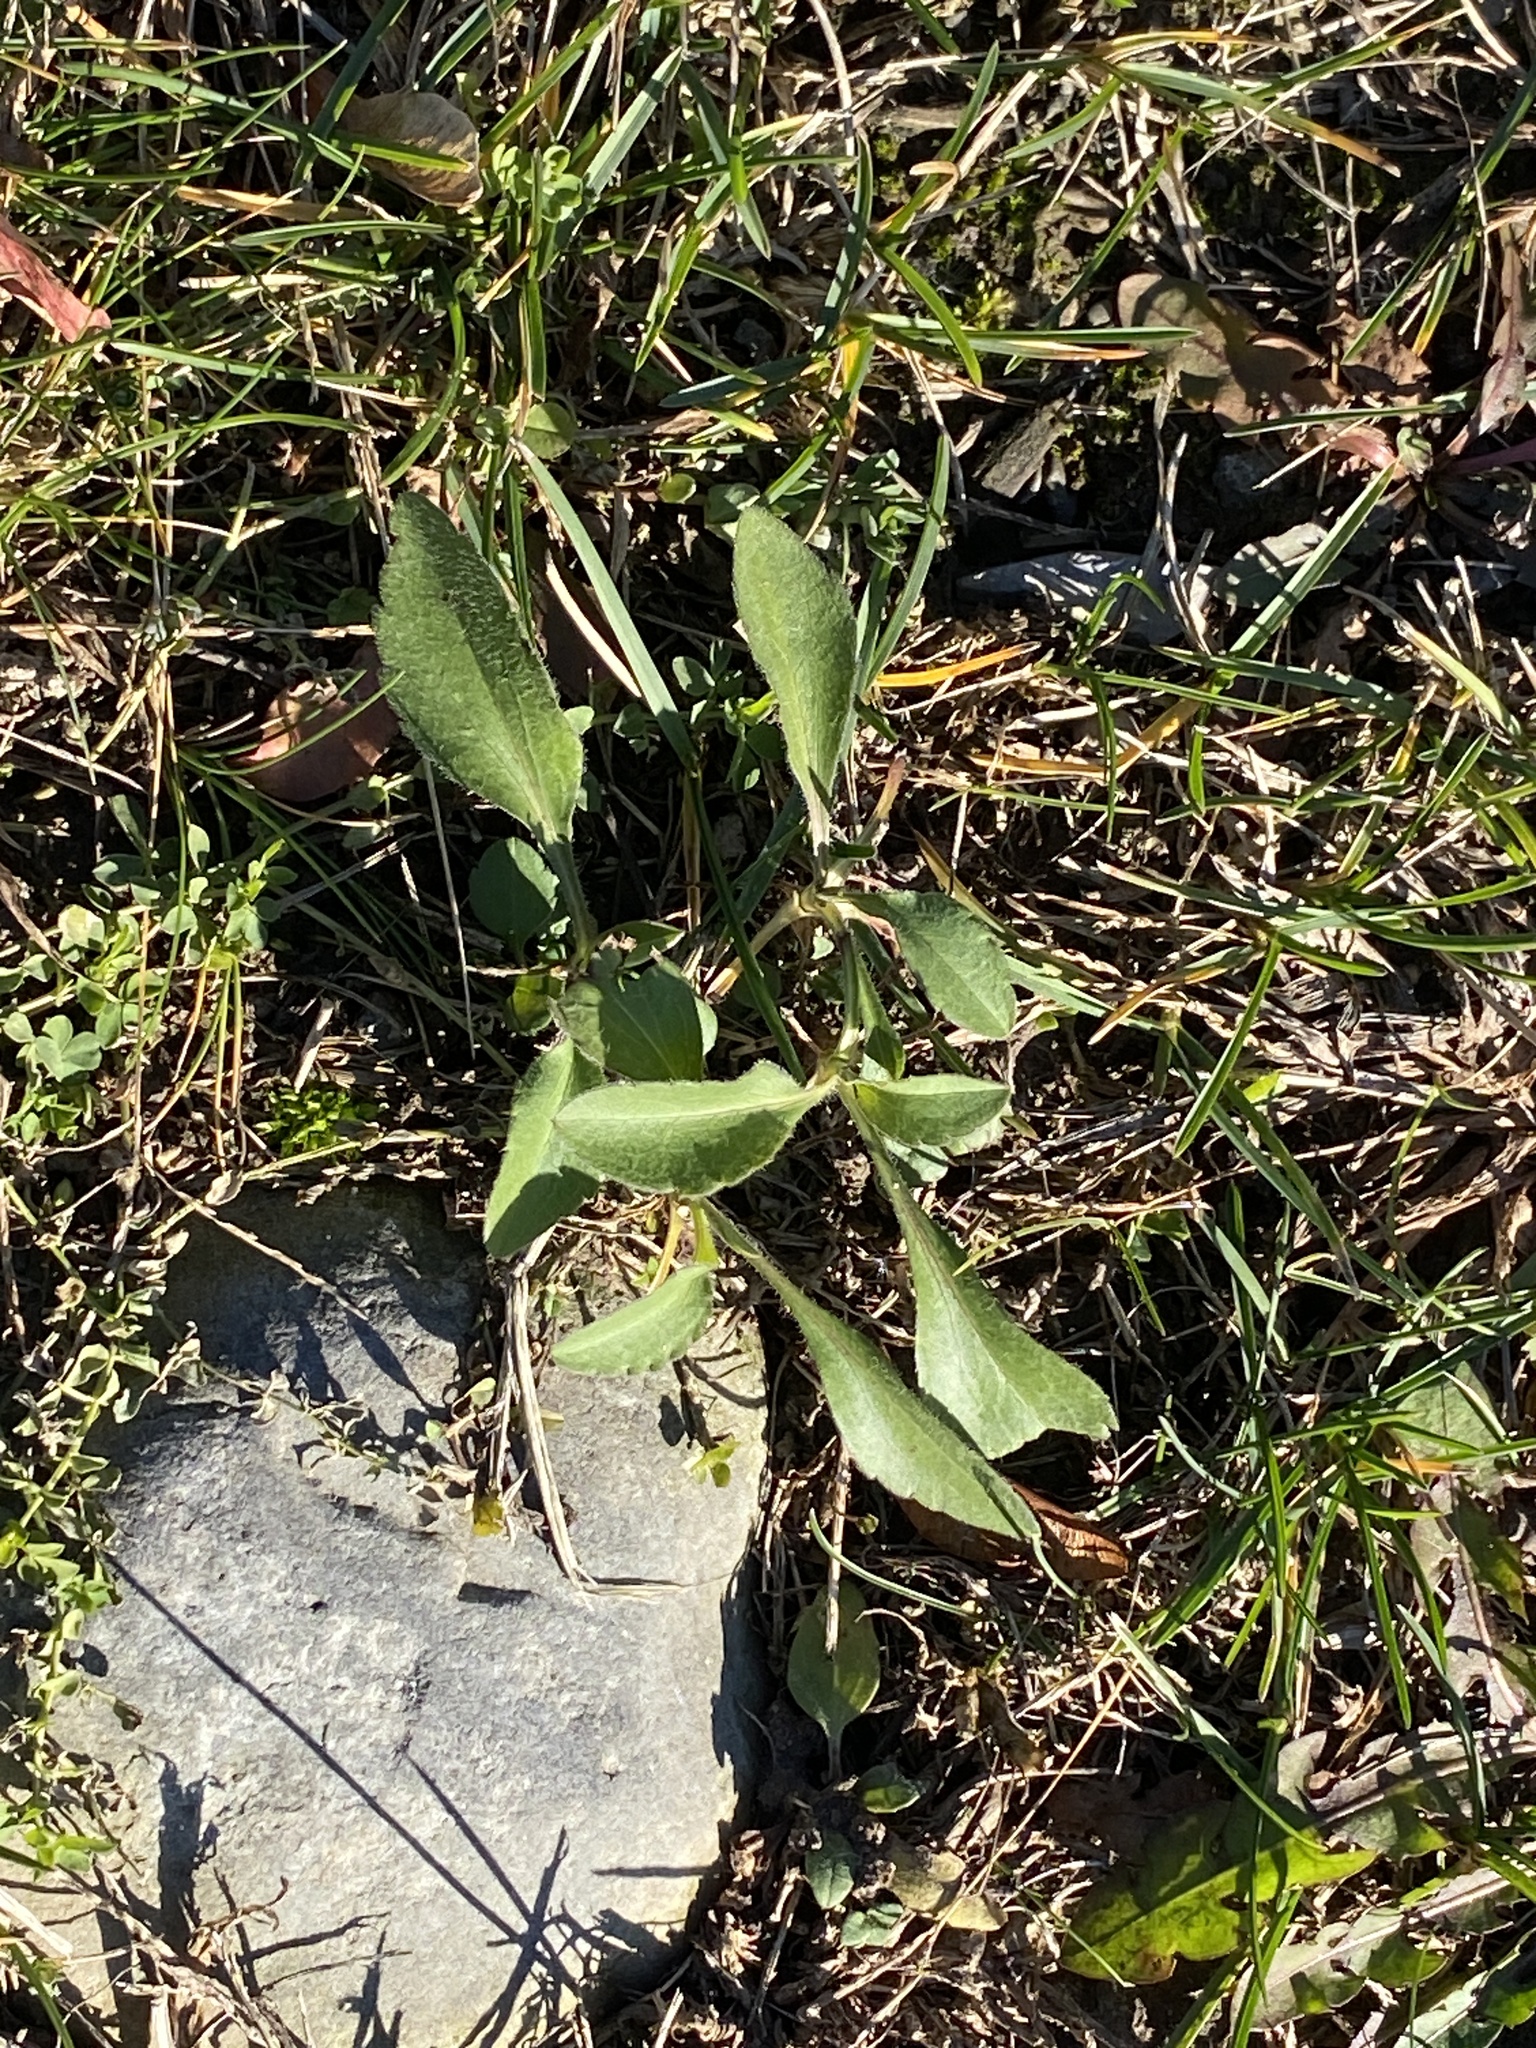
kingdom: Plantae
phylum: Tracheophyta
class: Magnoliopsida
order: Asterales
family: Asteraceae
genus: Rudbeckia
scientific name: Rudbeckia hirta
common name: Black-eyed-susan
